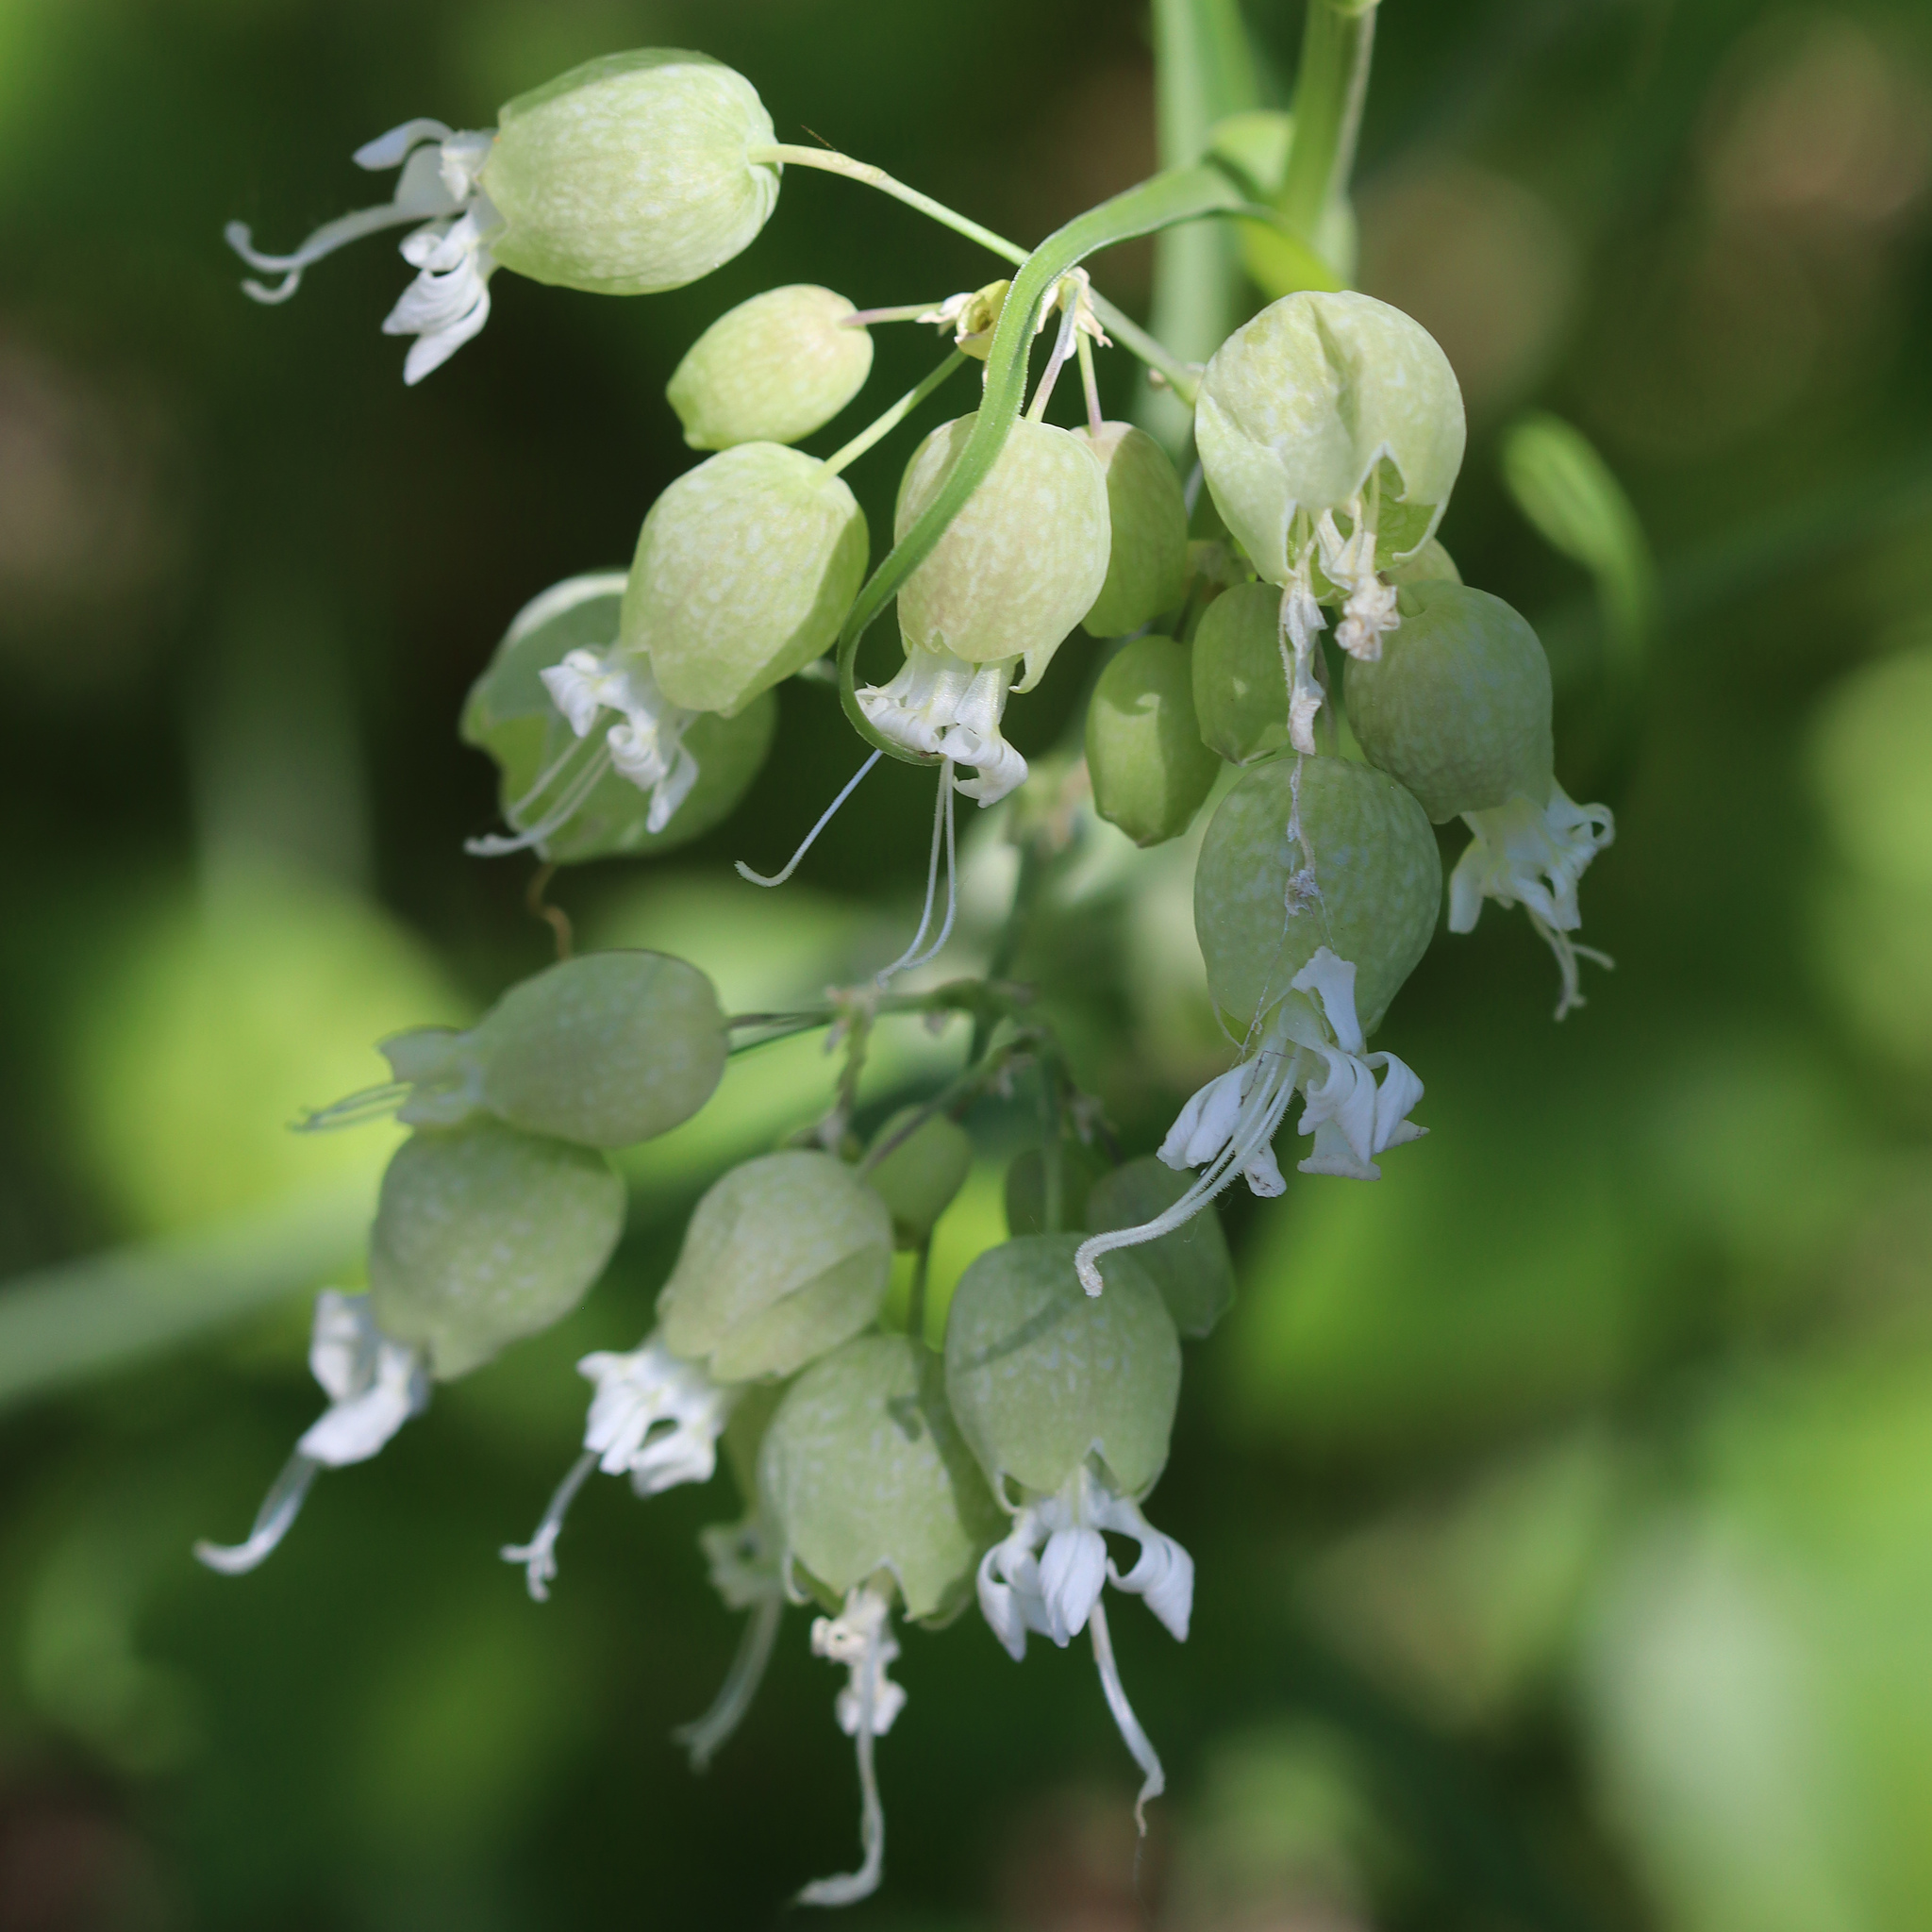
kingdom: Plantae
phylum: Tracheophyta
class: Magnoliopsida
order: Caryophyllales
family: Caryophyllaceae
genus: Silene
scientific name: Silene vulgaris
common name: Bladder campion
